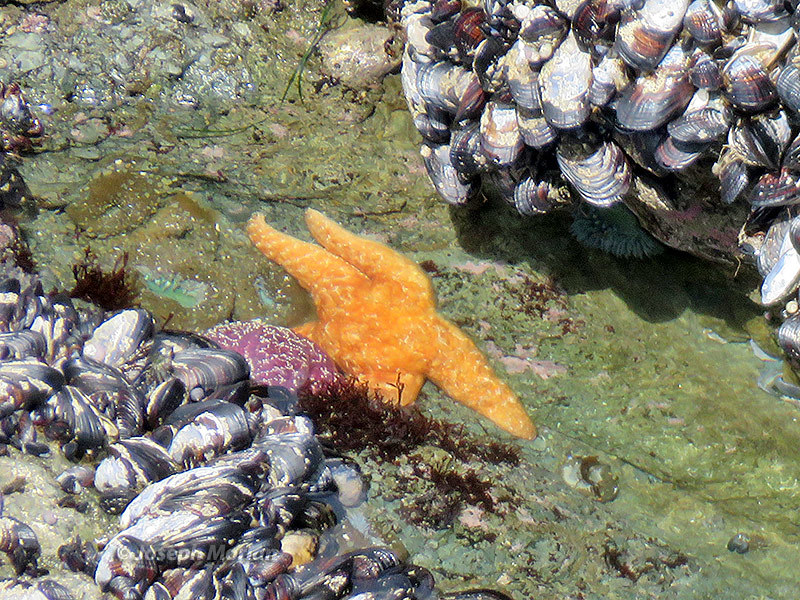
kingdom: Animalia
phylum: Echinodermata
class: Asteroidea
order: Forcipulatida
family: Asteriidae
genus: Pisaster
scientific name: Pisaster ochraceus
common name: Ochre stars
